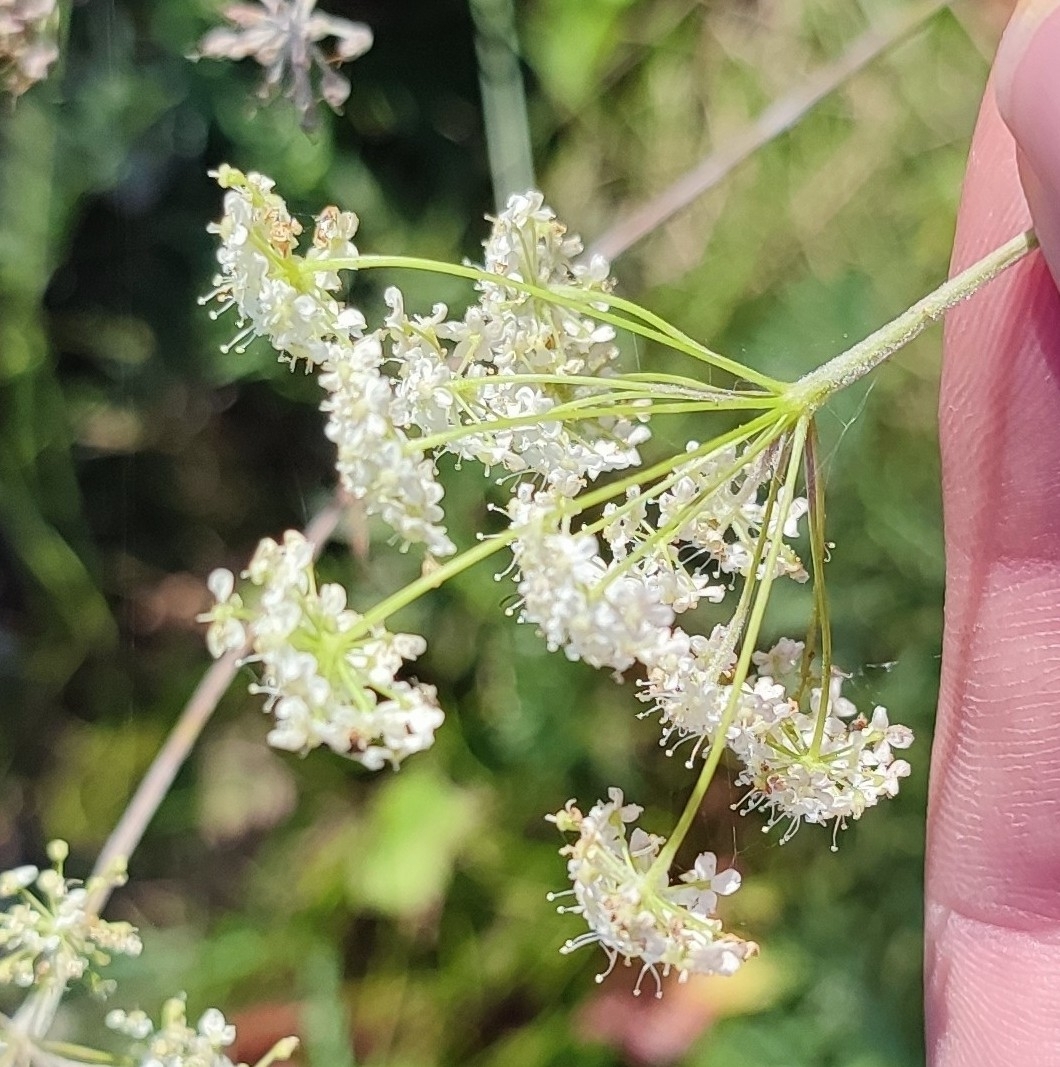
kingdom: Plantae
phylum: Tracheophyta
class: Magnoliopsida
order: Apiales
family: Apiaceae
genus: Pimpinella
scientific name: Pimpinella saxifraga
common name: Burnet-saxifrage
